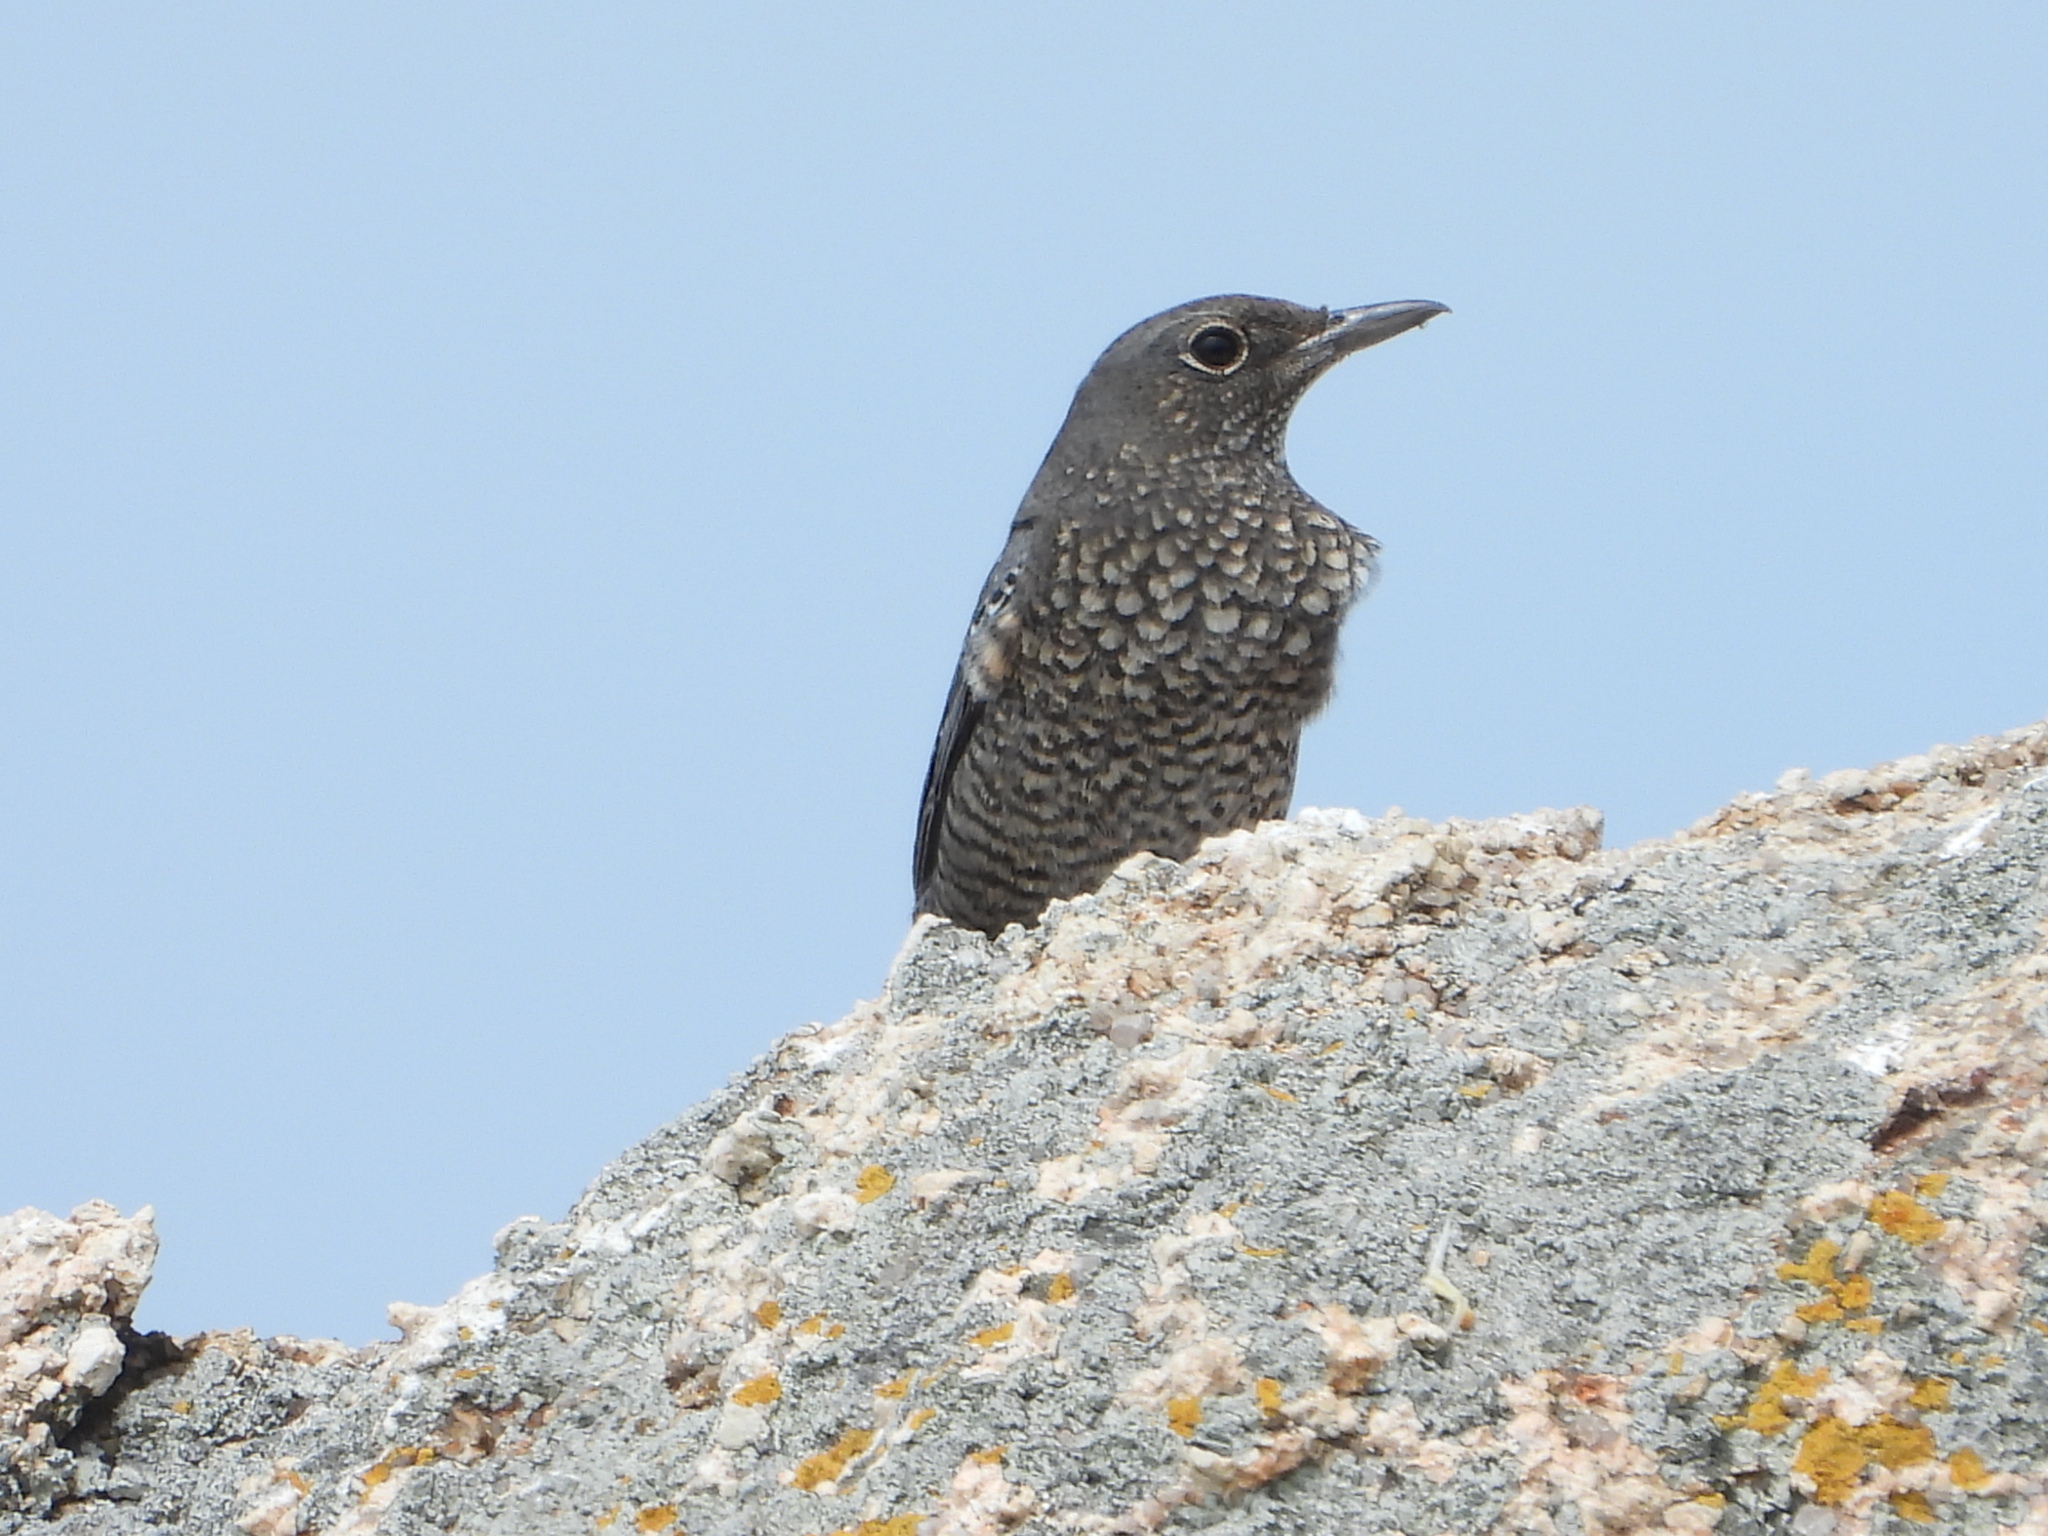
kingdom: Animalia
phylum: Chordata
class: Aves
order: Passeriformes
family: Muscicapidae
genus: Monticola
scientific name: Monticola solitarius
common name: Blue rock thrush
